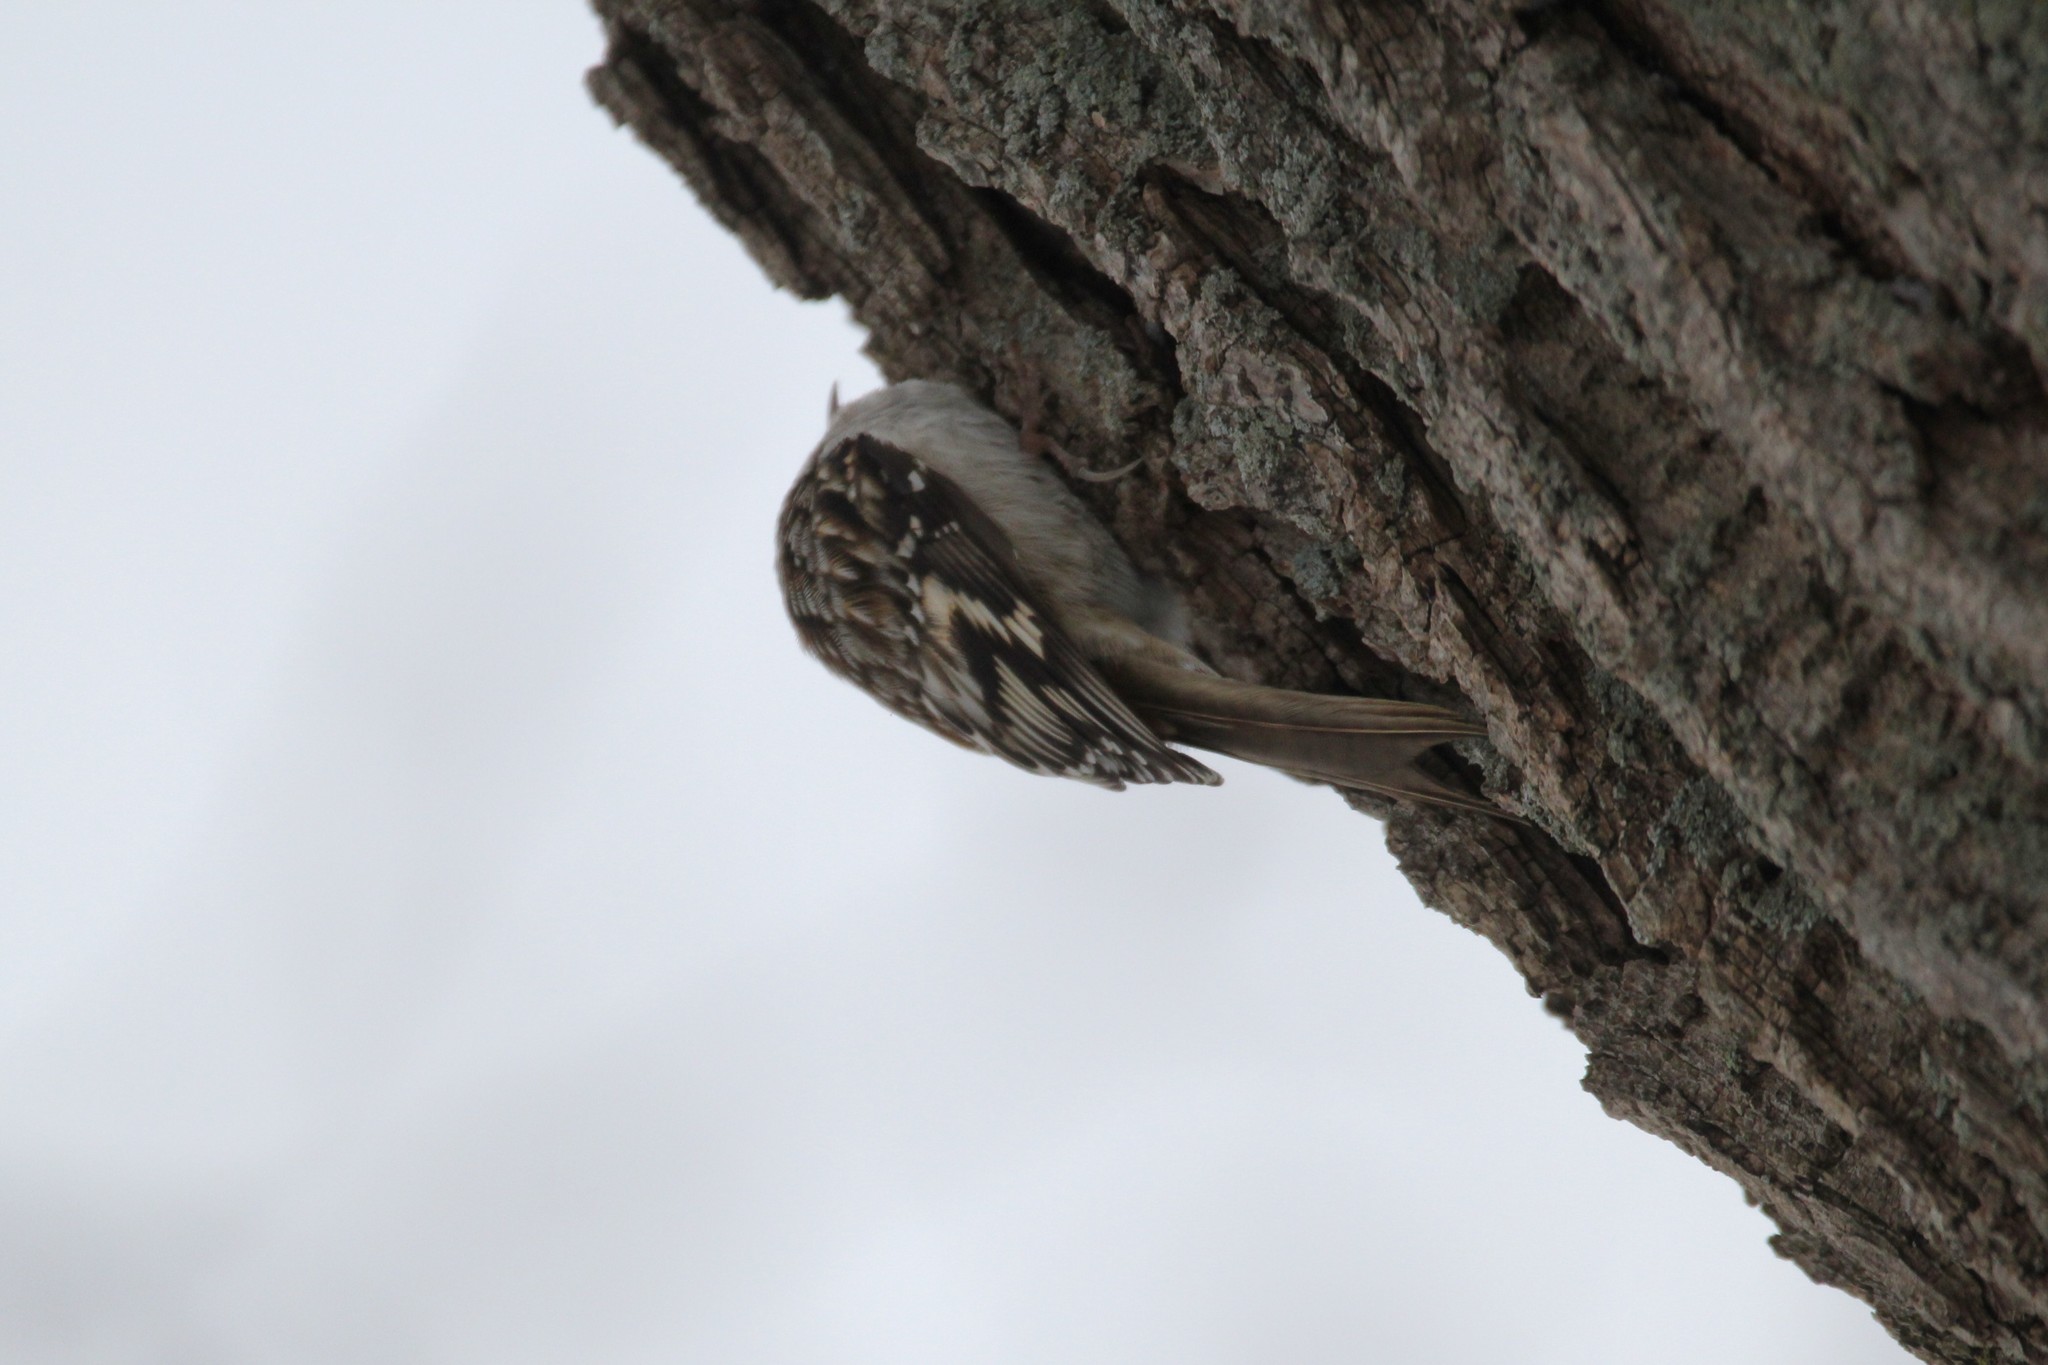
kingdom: Animalia
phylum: Chordata
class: Aves
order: Passeriformes
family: Certhiidae
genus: Certhia
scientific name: Certhia americana
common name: Brown creeper
